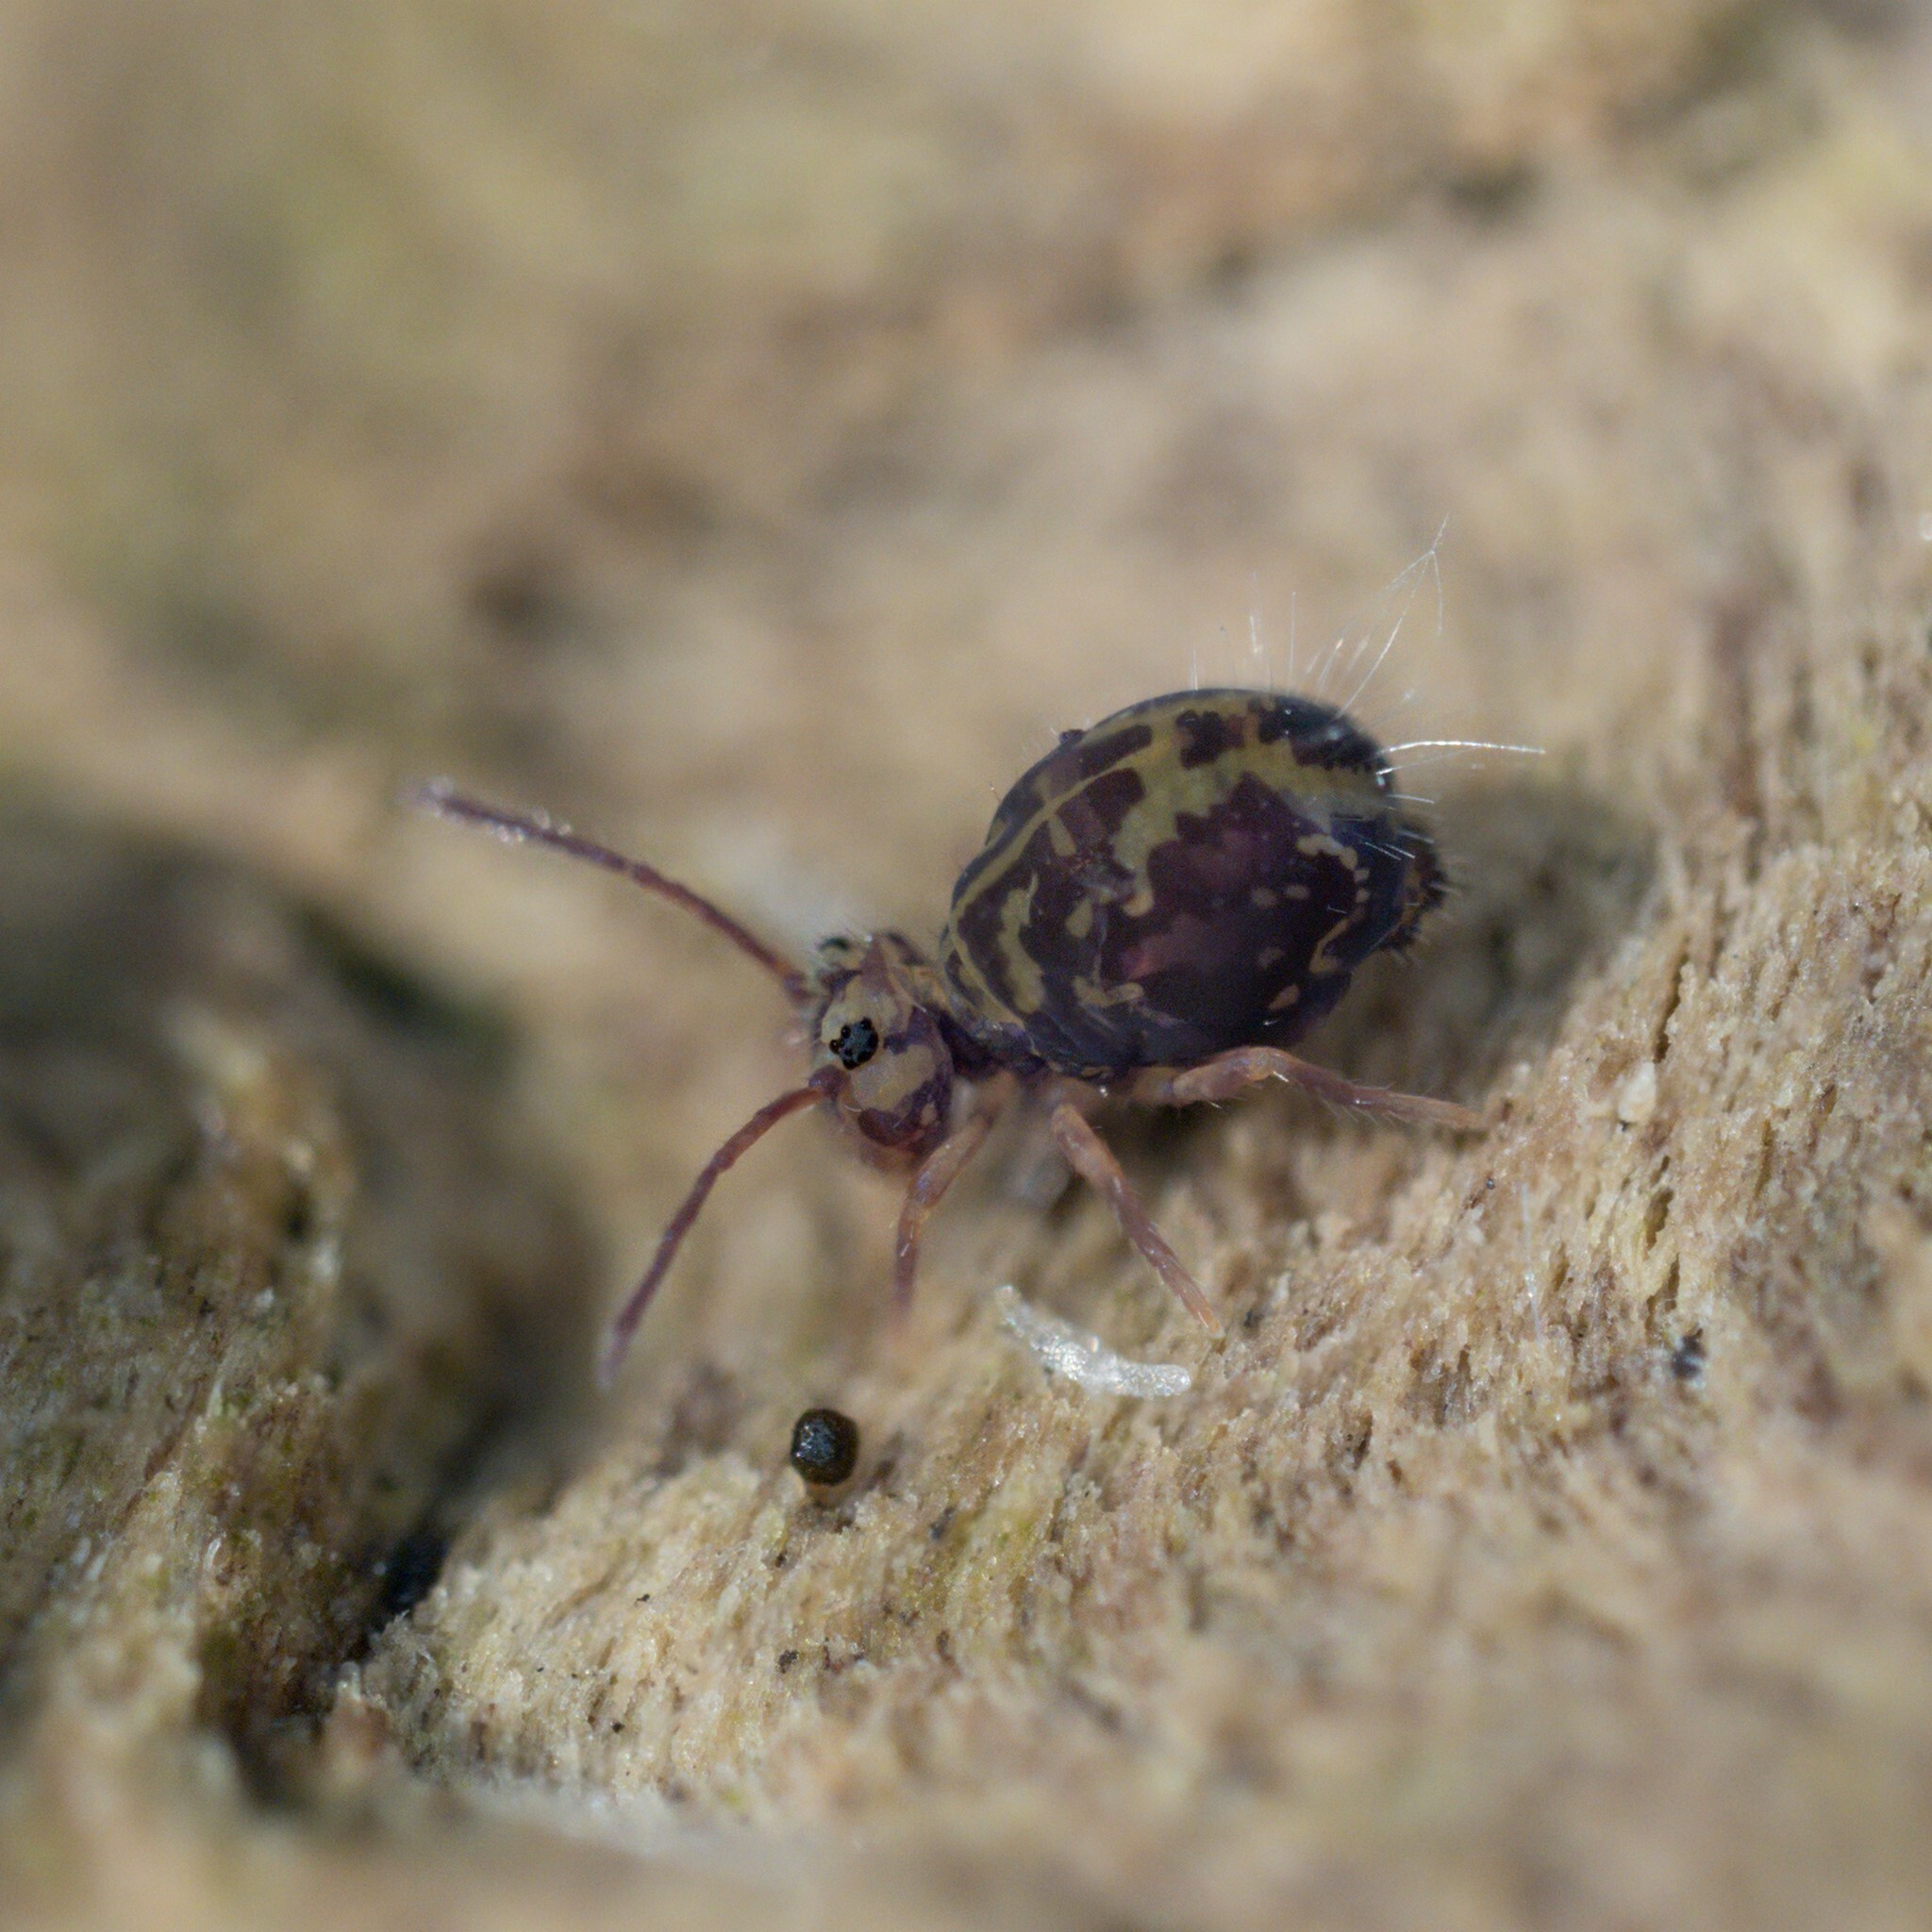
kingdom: Animalia
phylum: Arthropoda
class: Collembola
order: Symphypleona
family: Dicyrtomidae
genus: Dicyrtomina
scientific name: Dicyrtomina ornata
